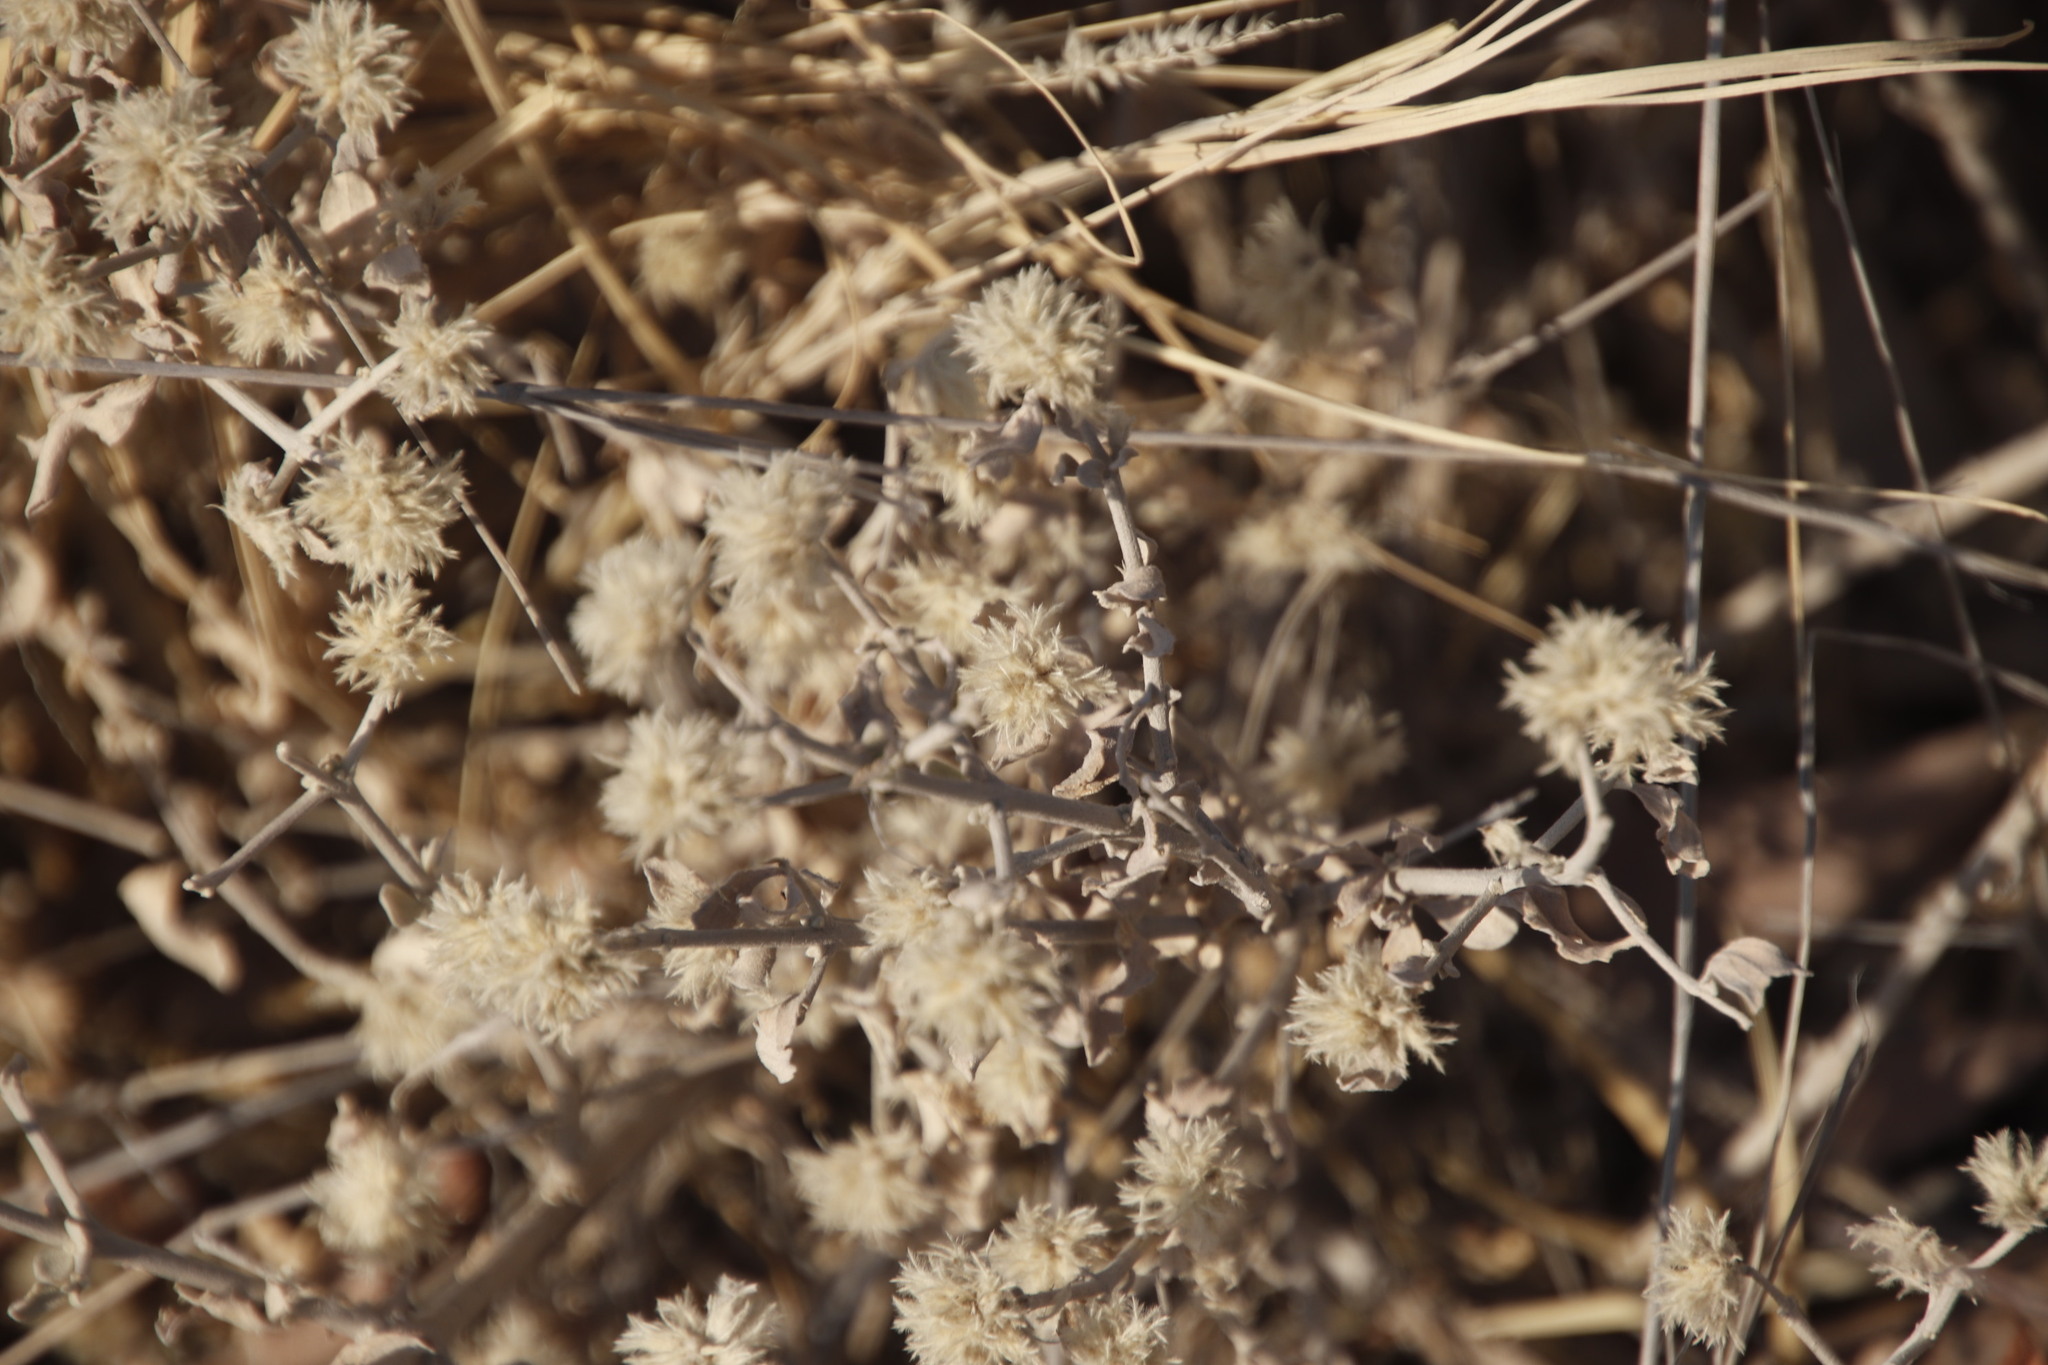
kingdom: Plantae
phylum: Tracheophyta
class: Magnoliopsida
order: Caryophyllales
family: Amaranthaceae
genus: Leucosphaera
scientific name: Leucosphaera bainesii
